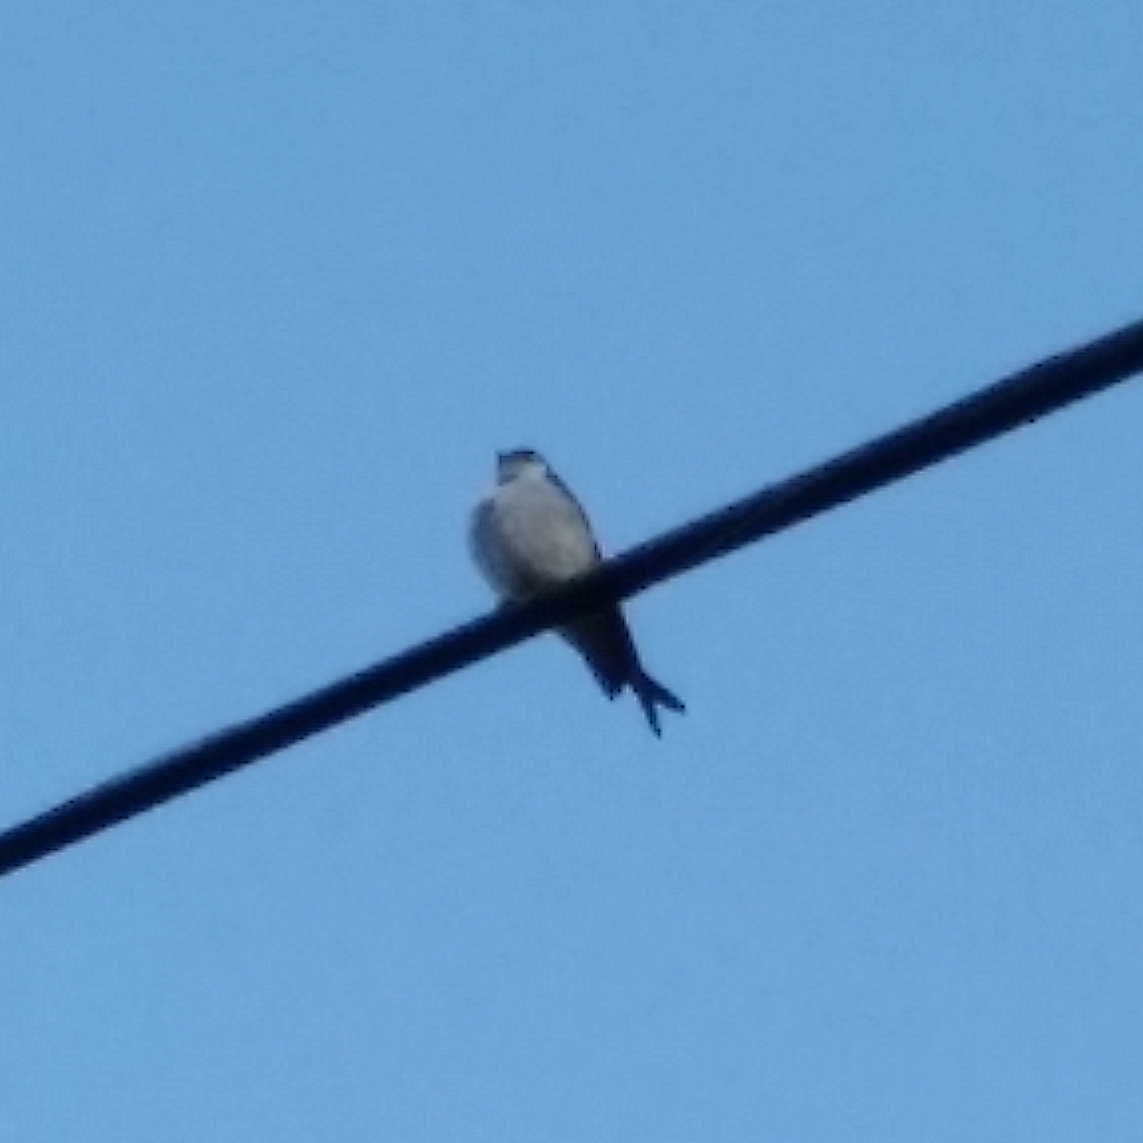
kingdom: Animalia
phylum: Chordata
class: Aves
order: Passeriformes
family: Hirundinidae
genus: Tachycineta
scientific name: Tachycineta thalassina
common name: Violet-green swallow
